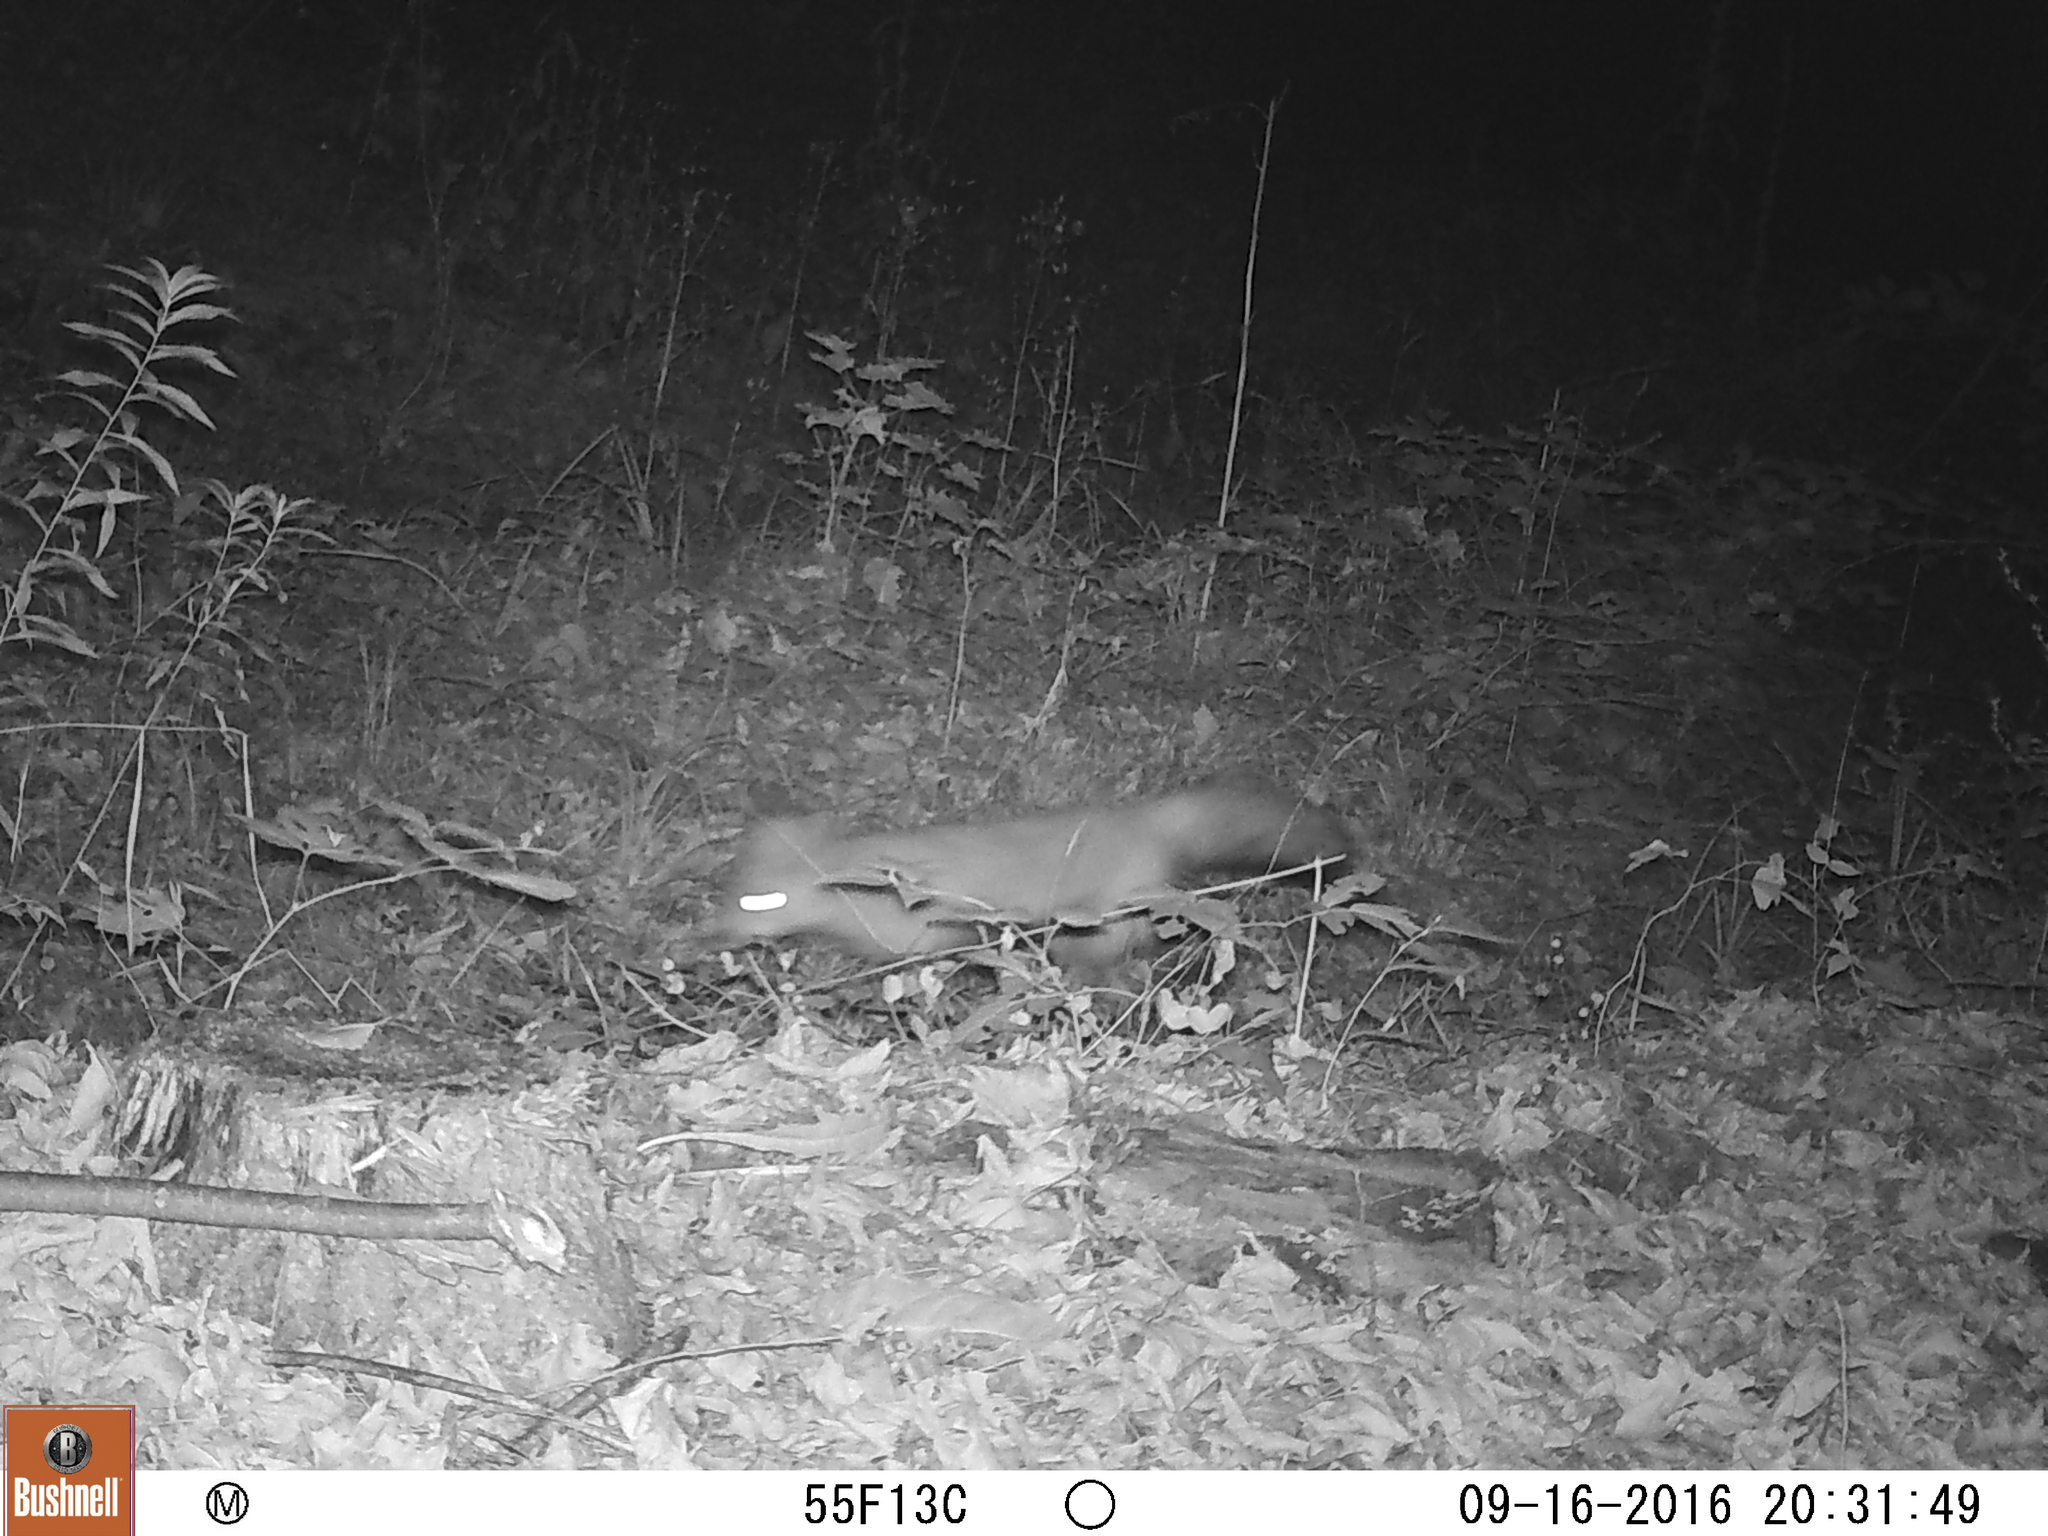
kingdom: Animalia
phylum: Chordata
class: Mammalia
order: Carnivora
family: Canidae
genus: Vulpes
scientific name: Vulpes vulpes
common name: Red fox
